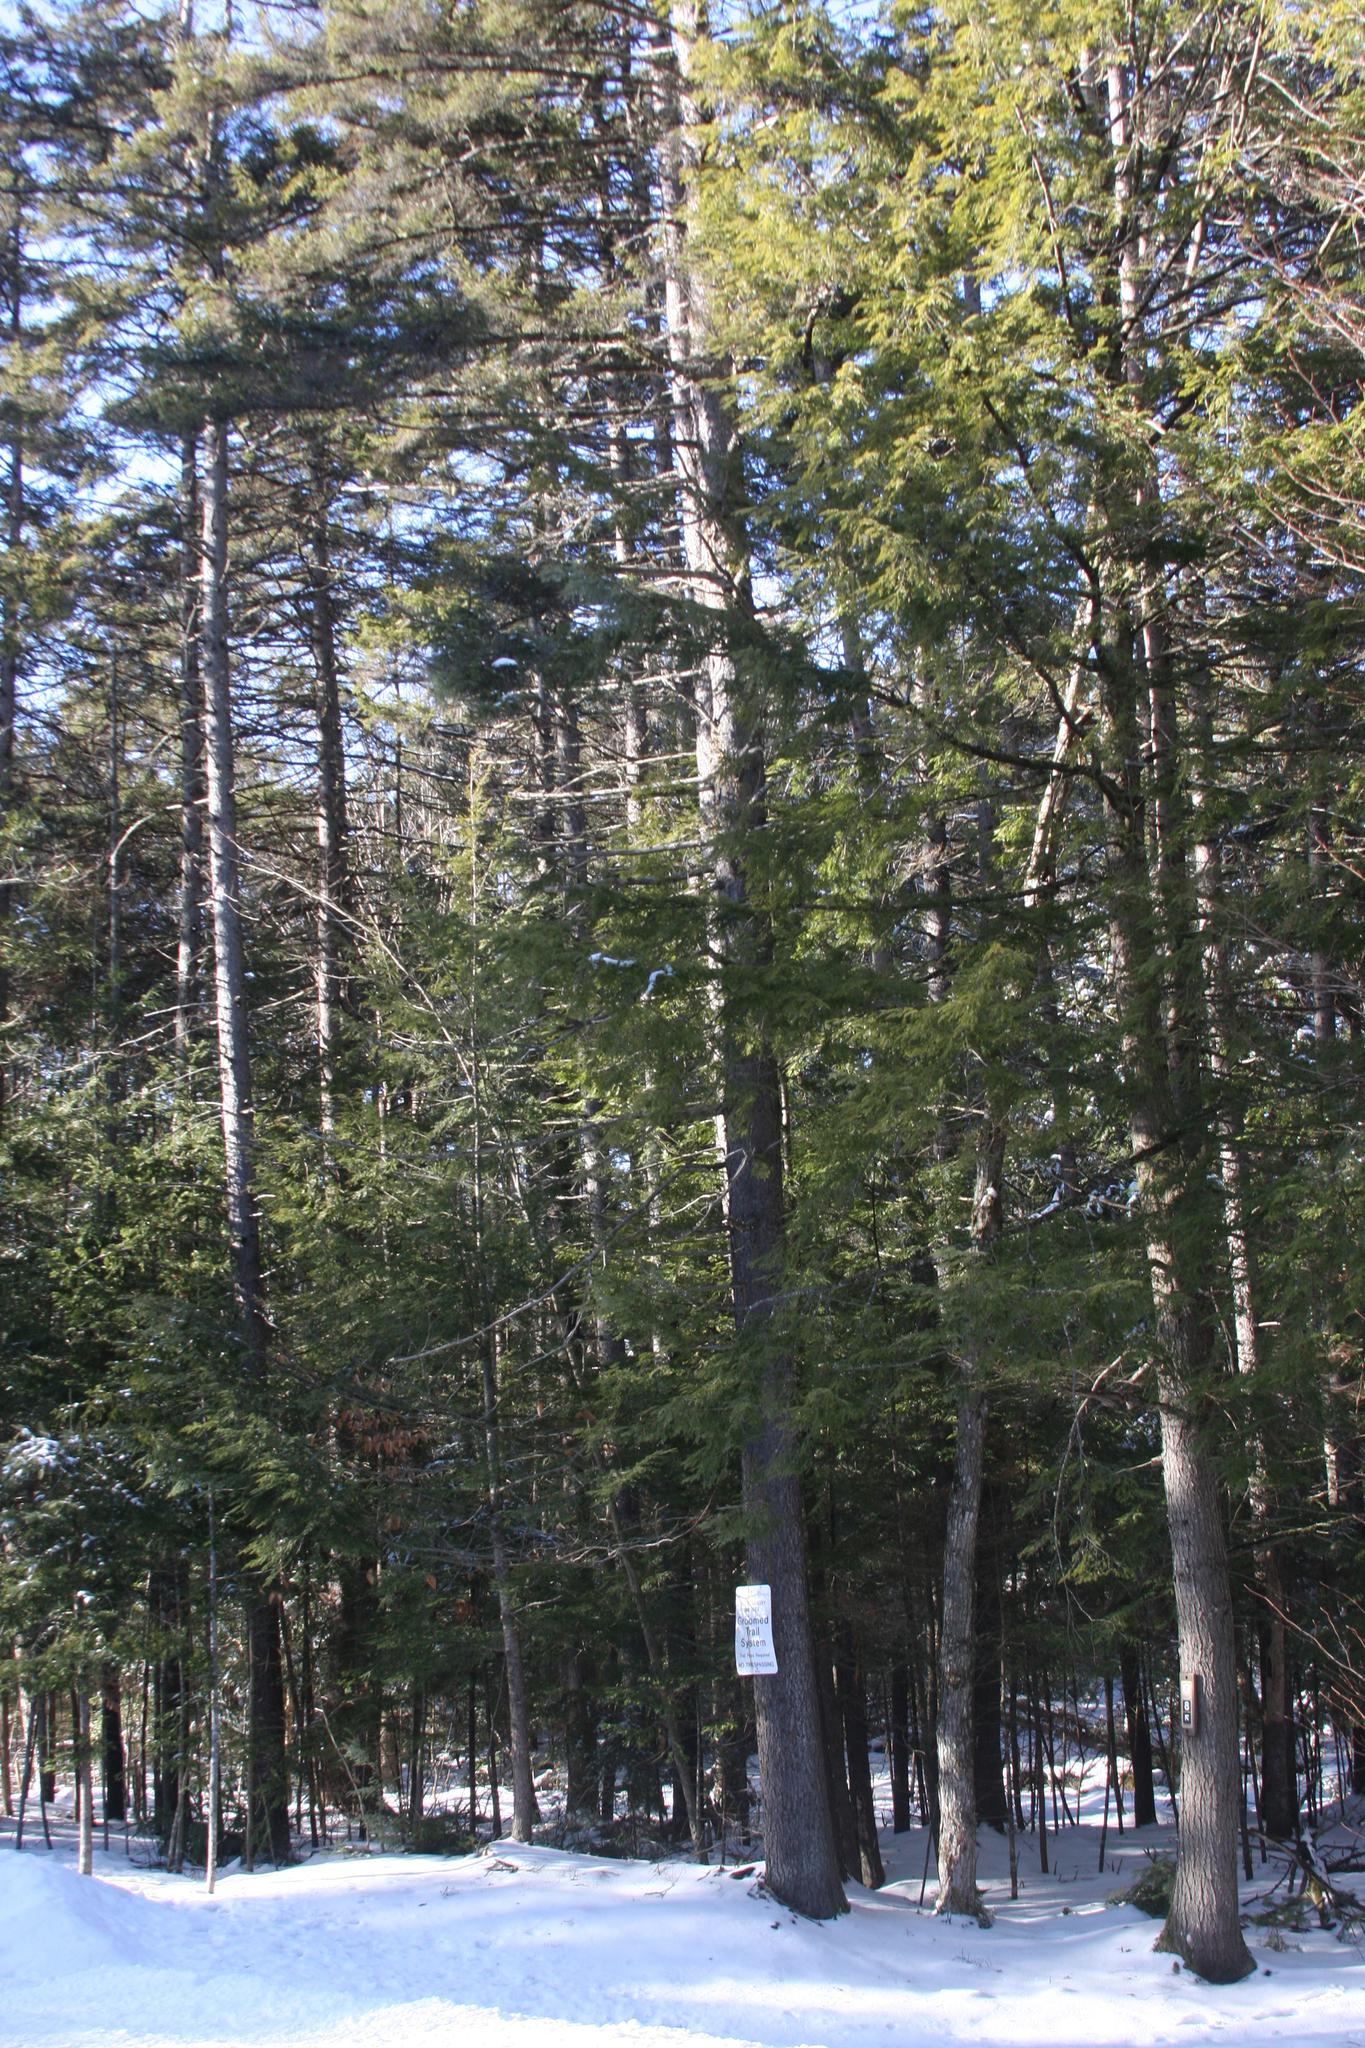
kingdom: Plantae
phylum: Tracheophyta
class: Pinopsida
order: Pinales
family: Pinaceae
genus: Pinus
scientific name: Pinus strobus
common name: Weymouth pine
